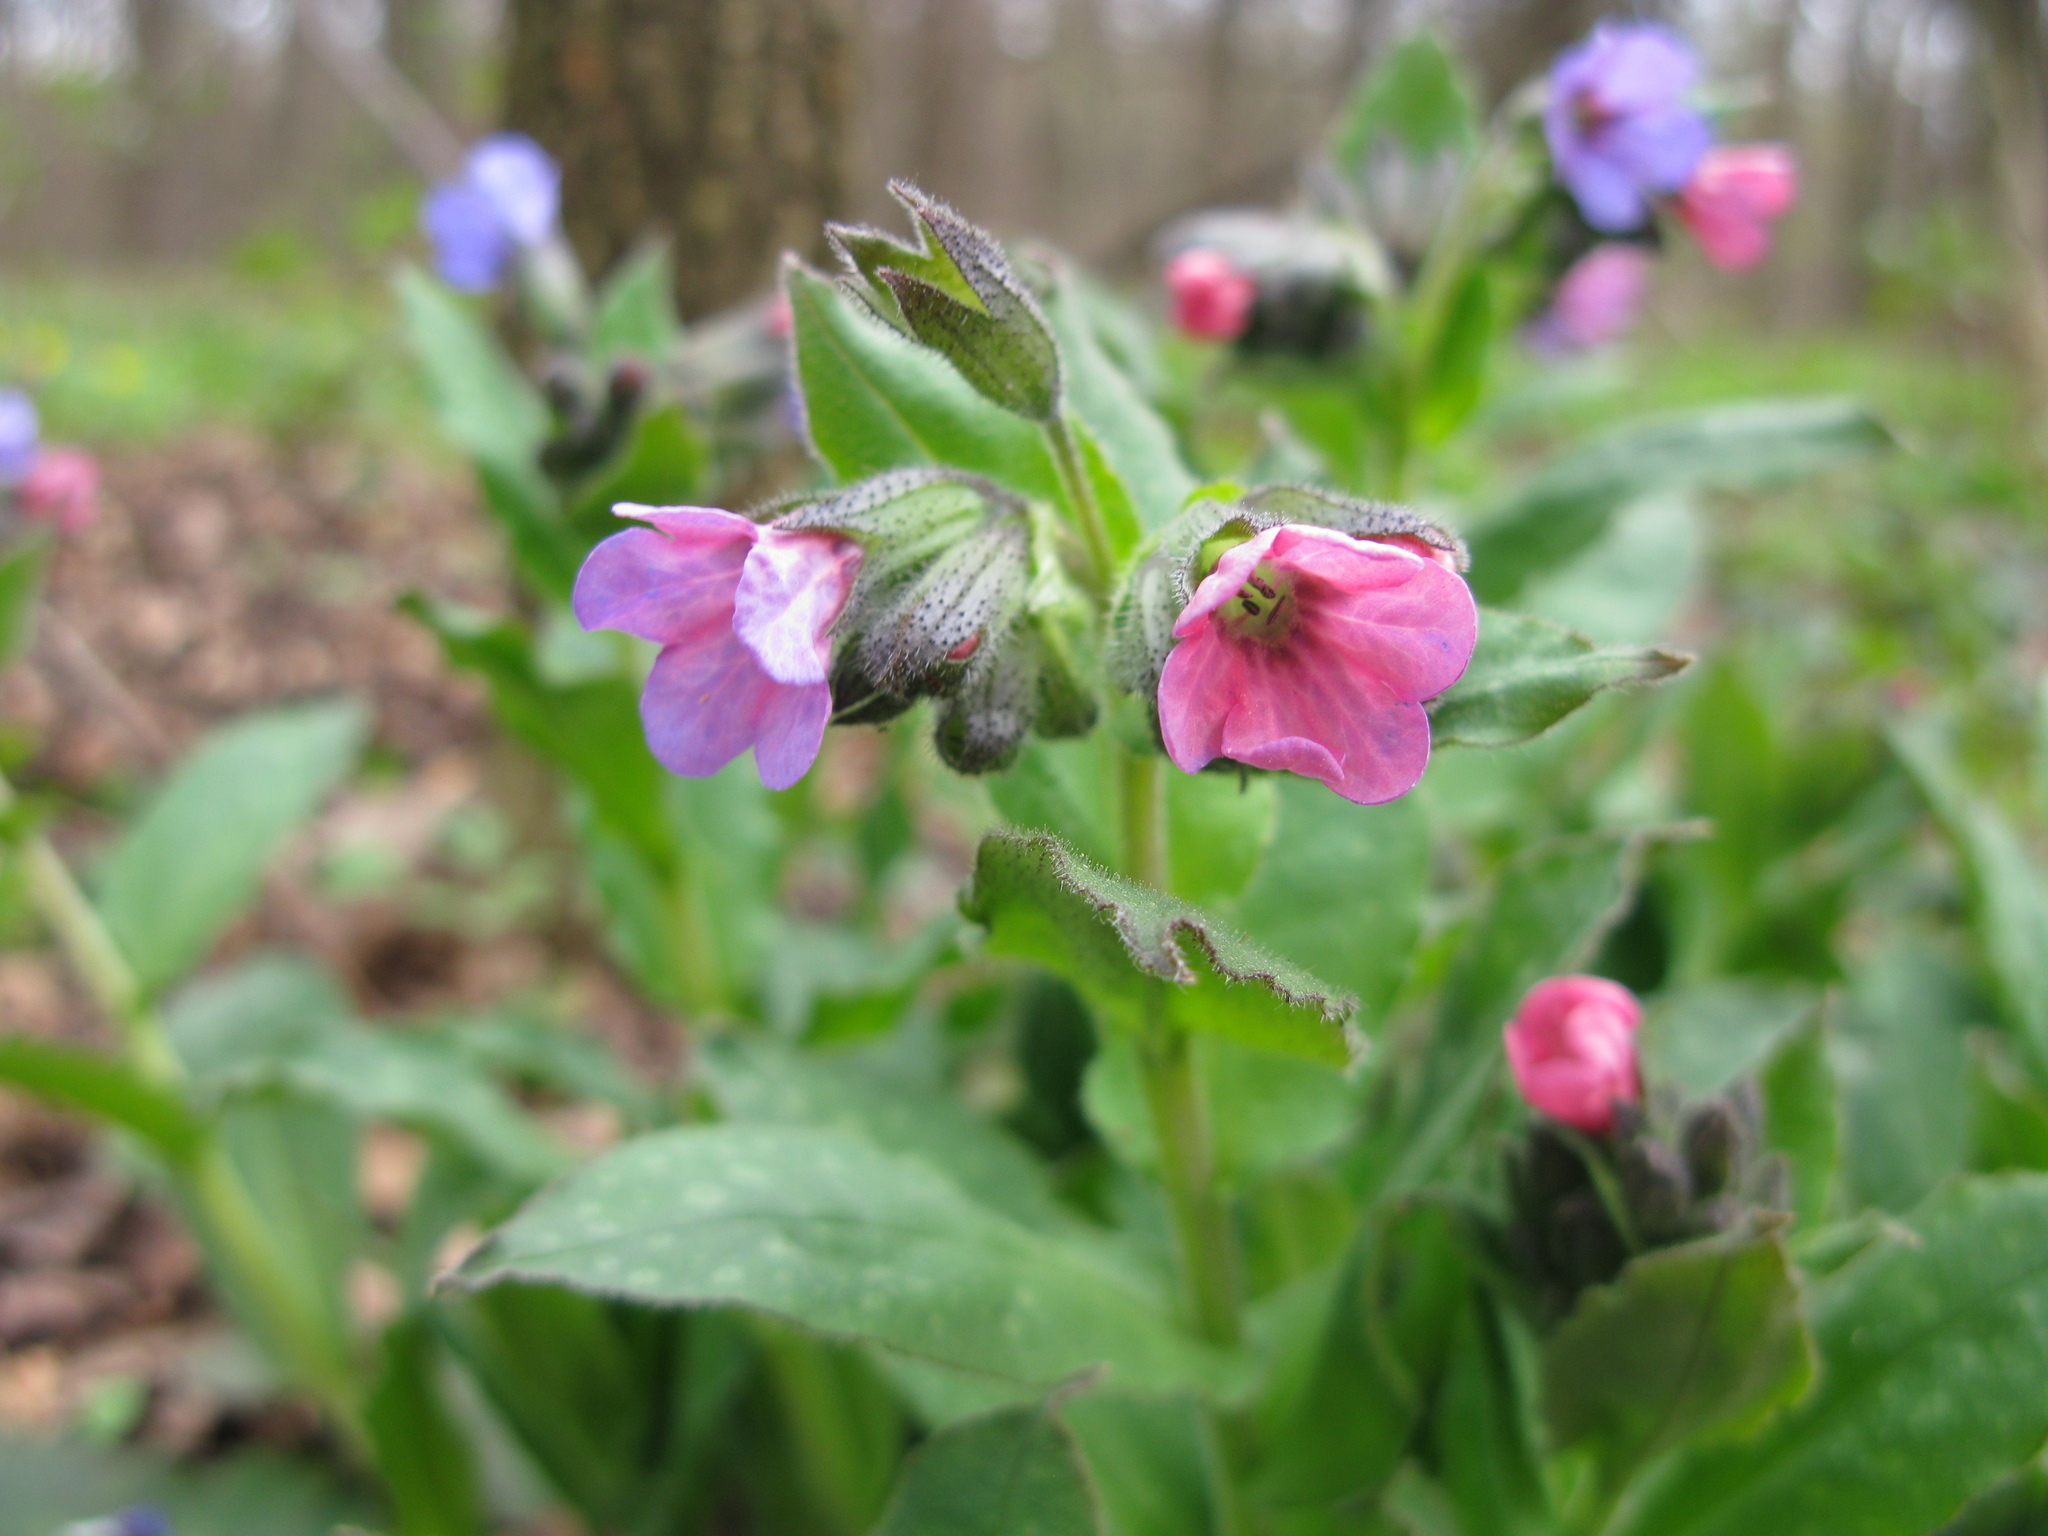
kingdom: Plantae
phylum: Tracheophyta
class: Magnoliopsida
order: Boraginales
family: Boraginaceae
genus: Pulmonaria
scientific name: Pulmonaria obscura
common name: Suffolk lungwort
